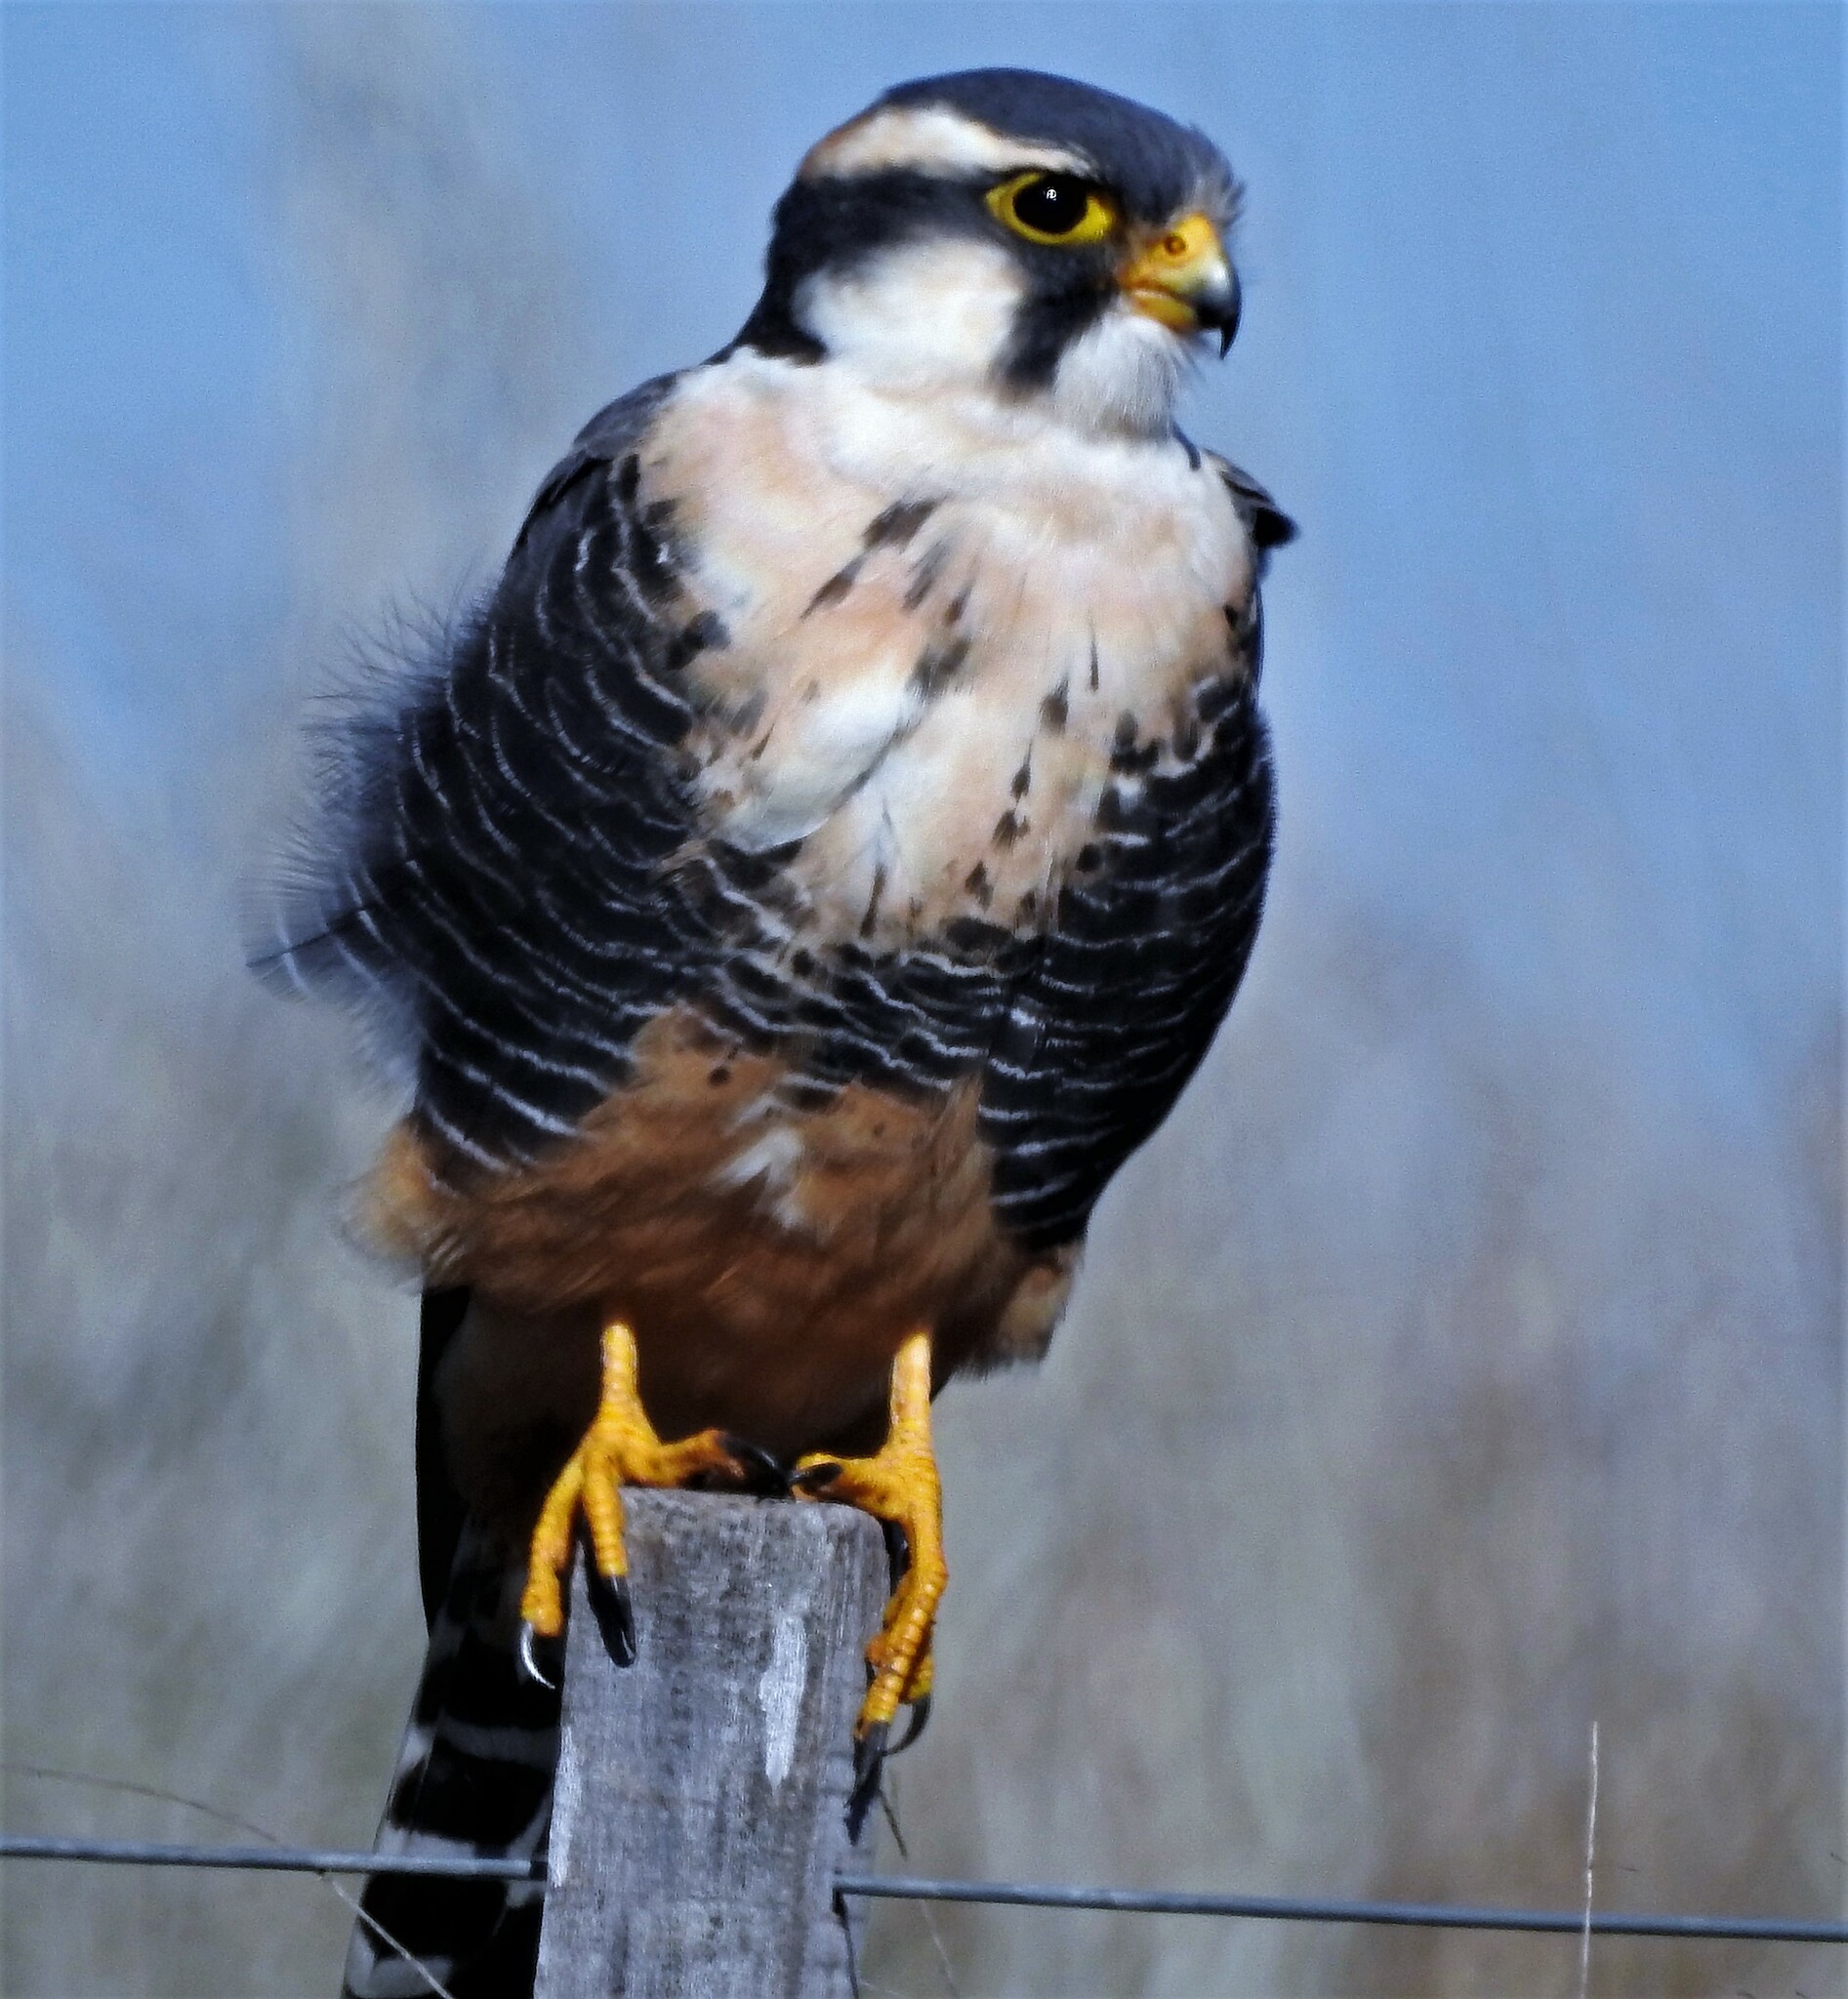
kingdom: Animalia
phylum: Chordata
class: Aves
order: Falconiformes
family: Falconidae
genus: Falco
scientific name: Falco femoralis
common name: Aplomado falcon
